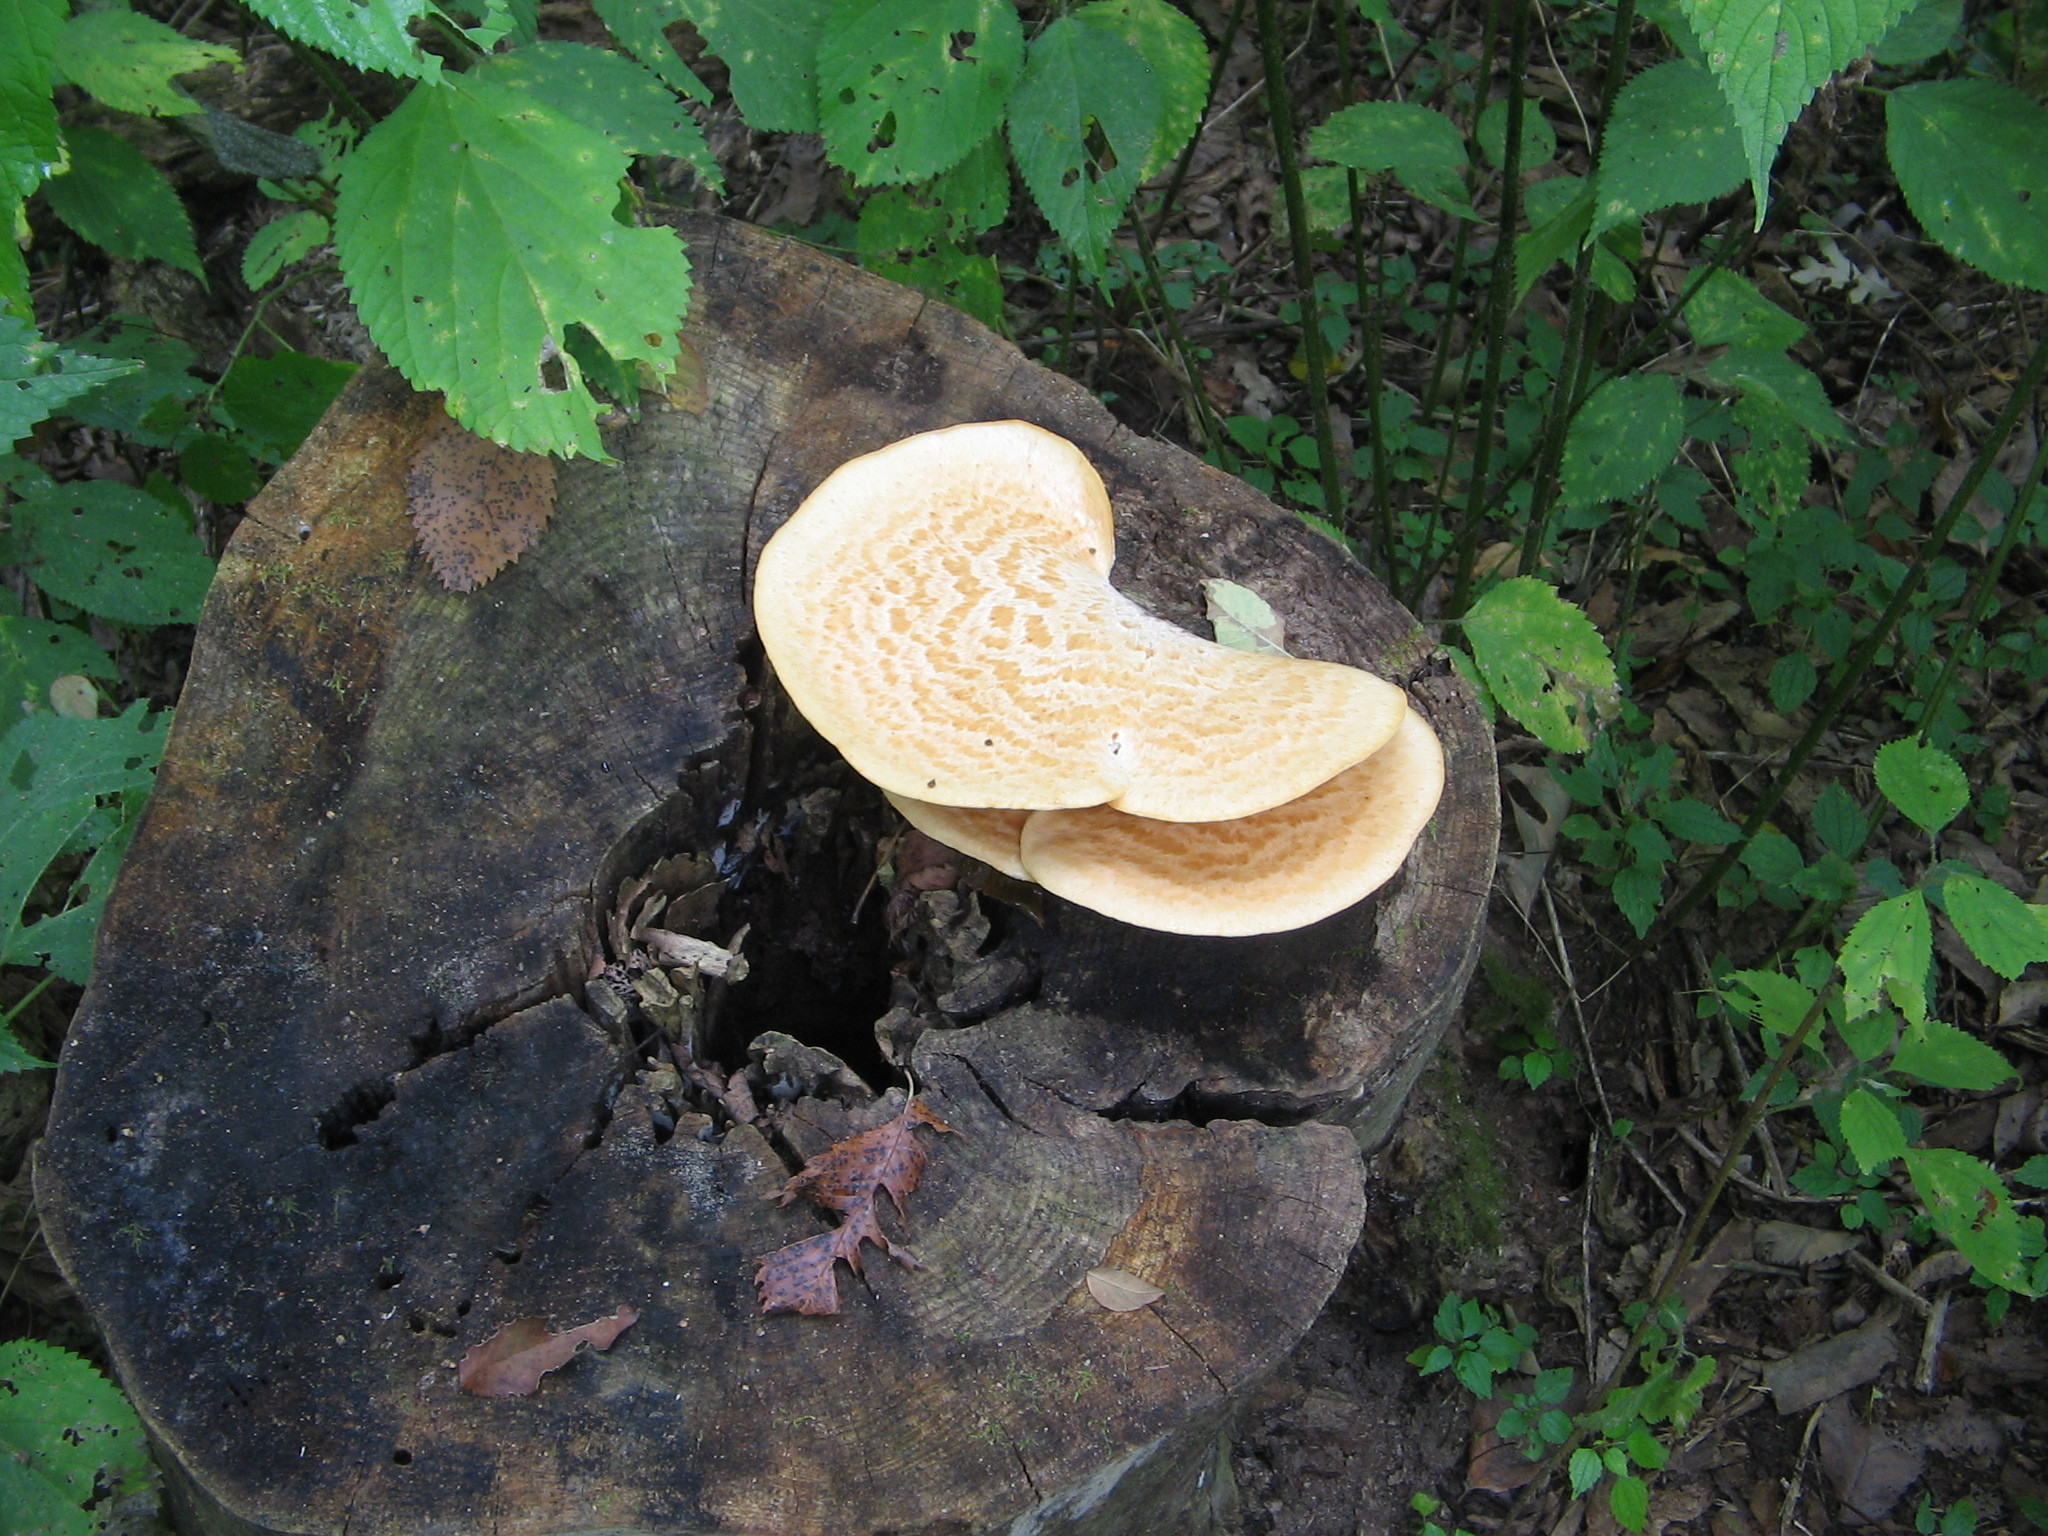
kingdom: Fungi
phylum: Basidiomycota
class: Agaricomycetes
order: Polyporales
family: Polyporaceae
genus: Cerioporus
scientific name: Cerioporus squamosus
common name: Dryad's saddle
